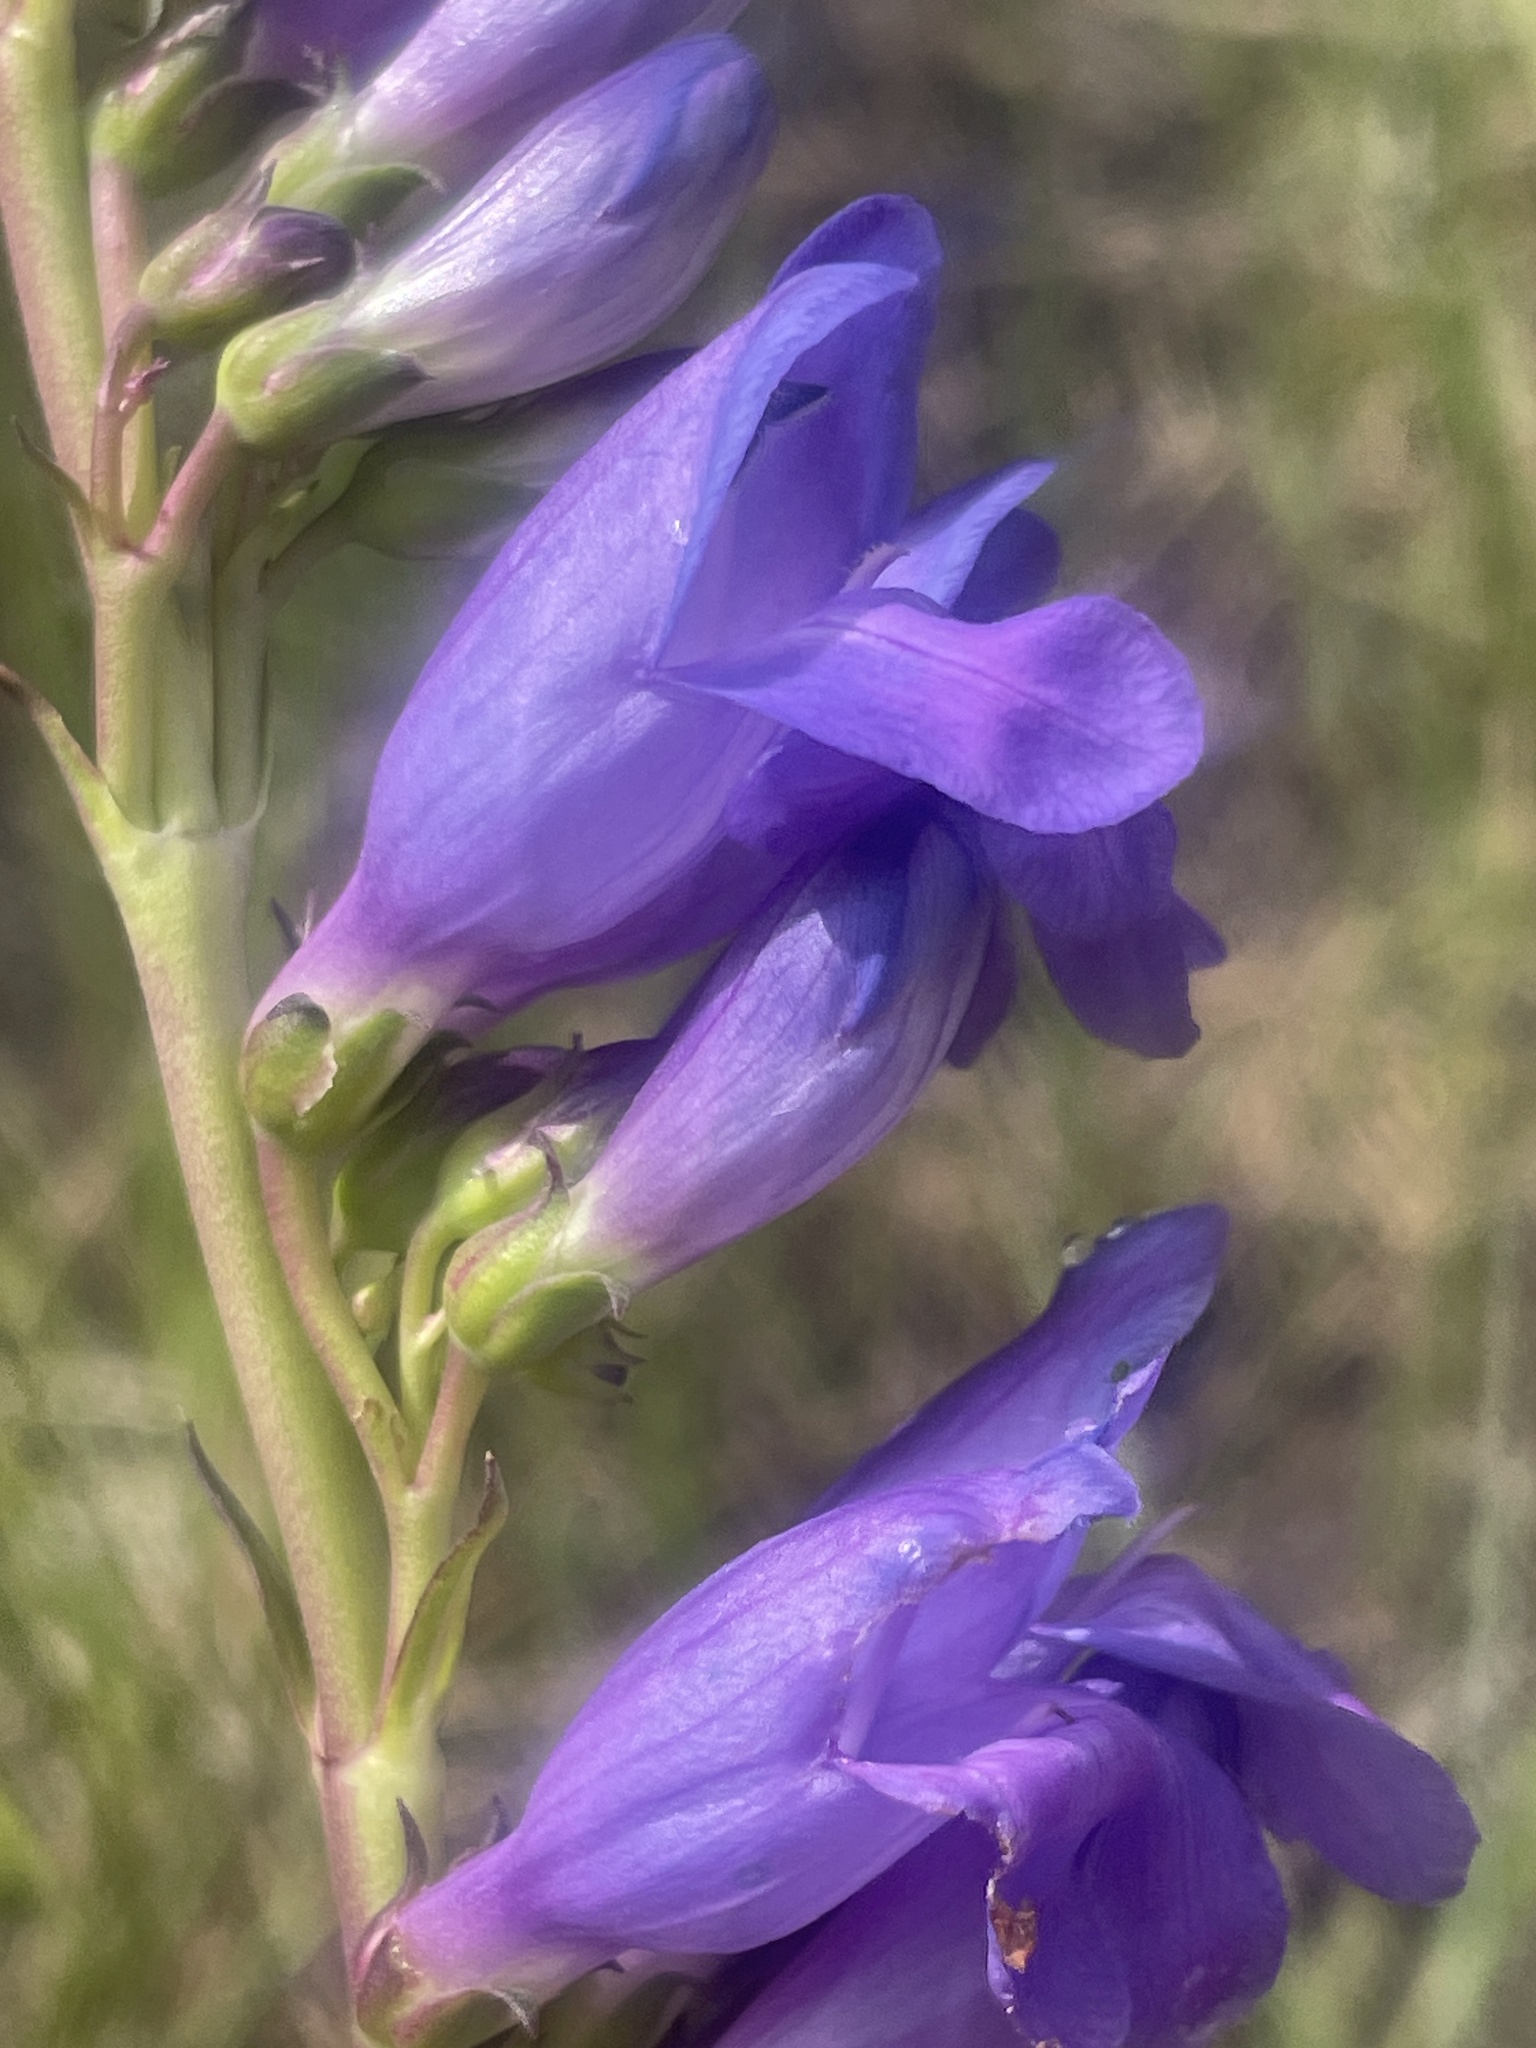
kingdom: Plantae
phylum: Tracheophyta
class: Magnoliopsida
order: Lamiales
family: Plantaginaceae
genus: Penstemon
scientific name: Penstemon strictus
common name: Rocky mountain penstemon
